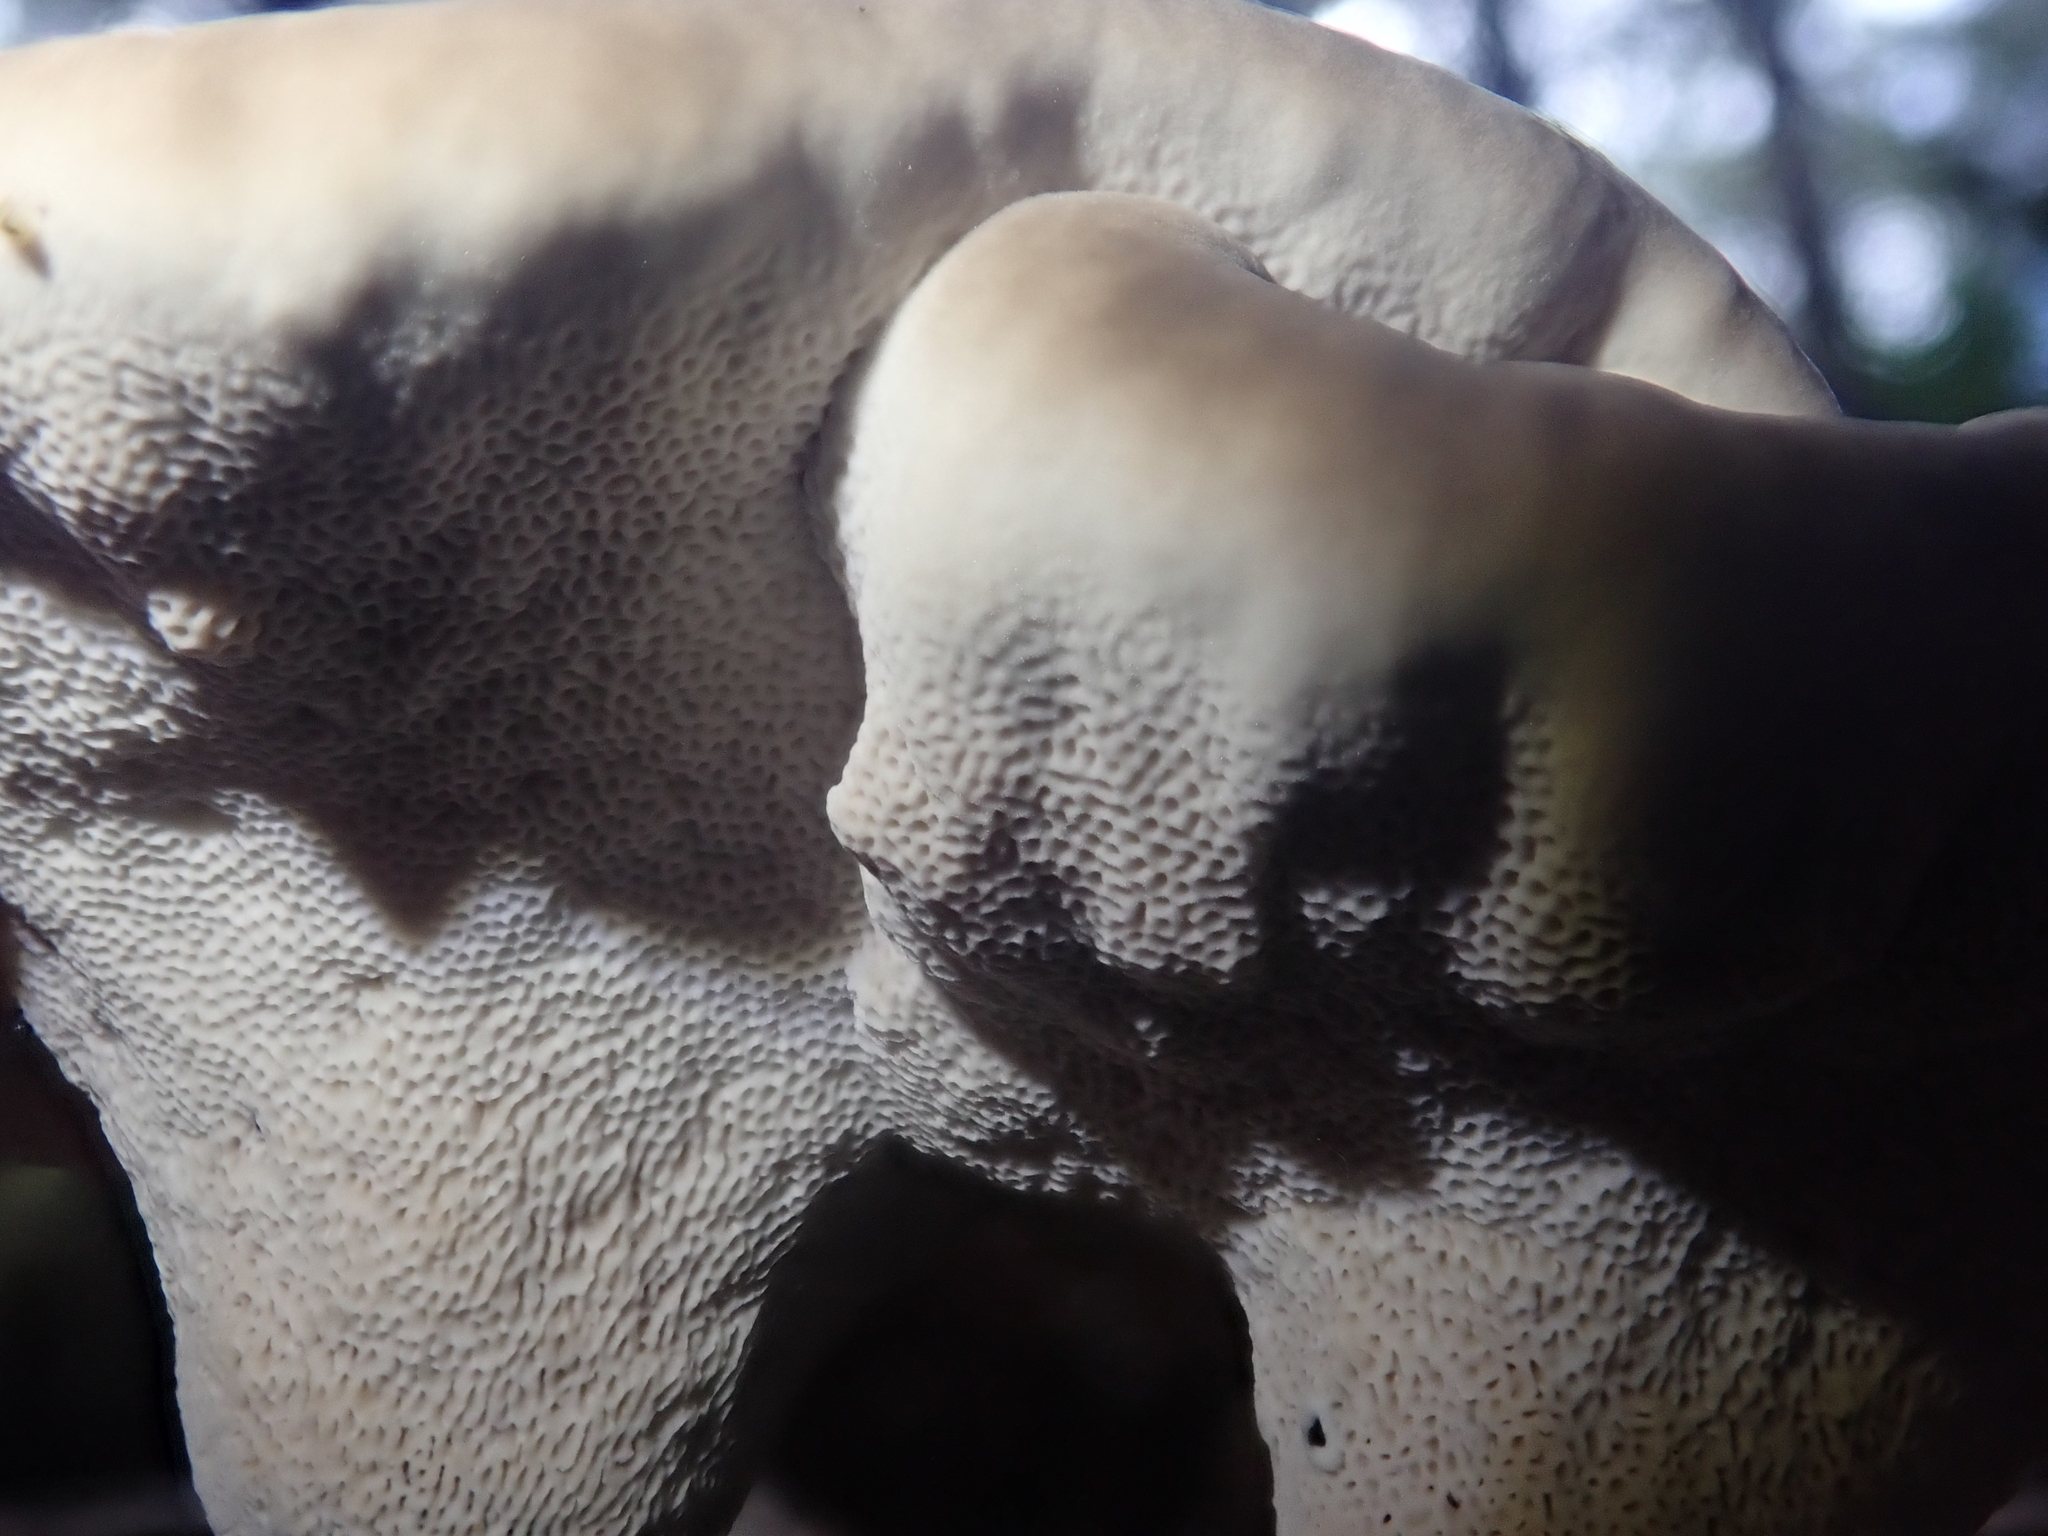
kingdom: Fungi
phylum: Basidiomycota
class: Agaricomycetes
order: Polyporales
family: Ganodermataceae
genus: Sanguinoderma
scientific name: Sanguinoderma rude
